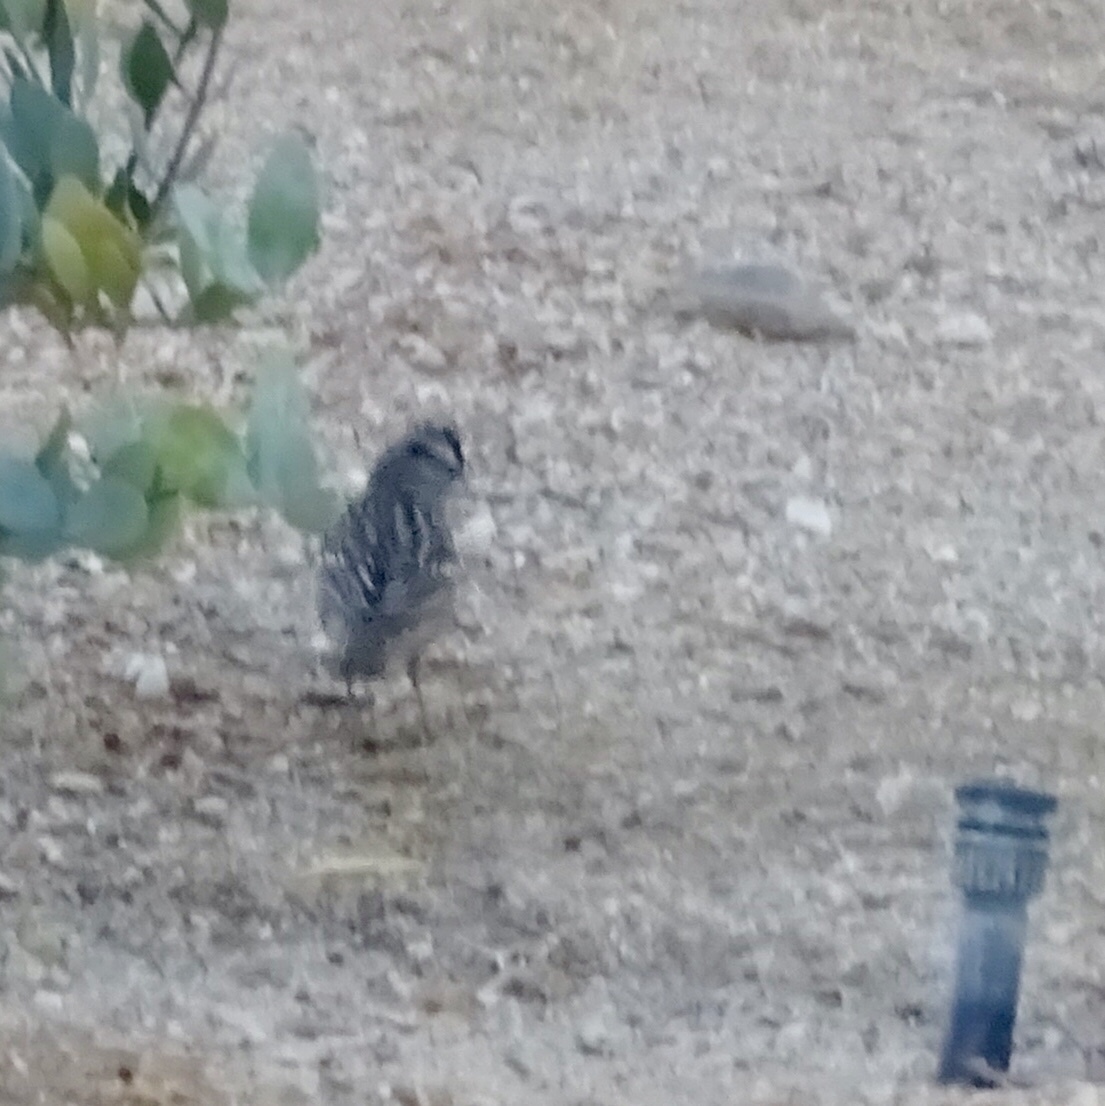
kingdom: Animalia
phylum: Chordata
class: Aves
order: Passeriformes
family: Passerellidae
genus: Zonotrichia
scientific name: Zonotrichia leucophrys
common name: White-crowned sparrow
